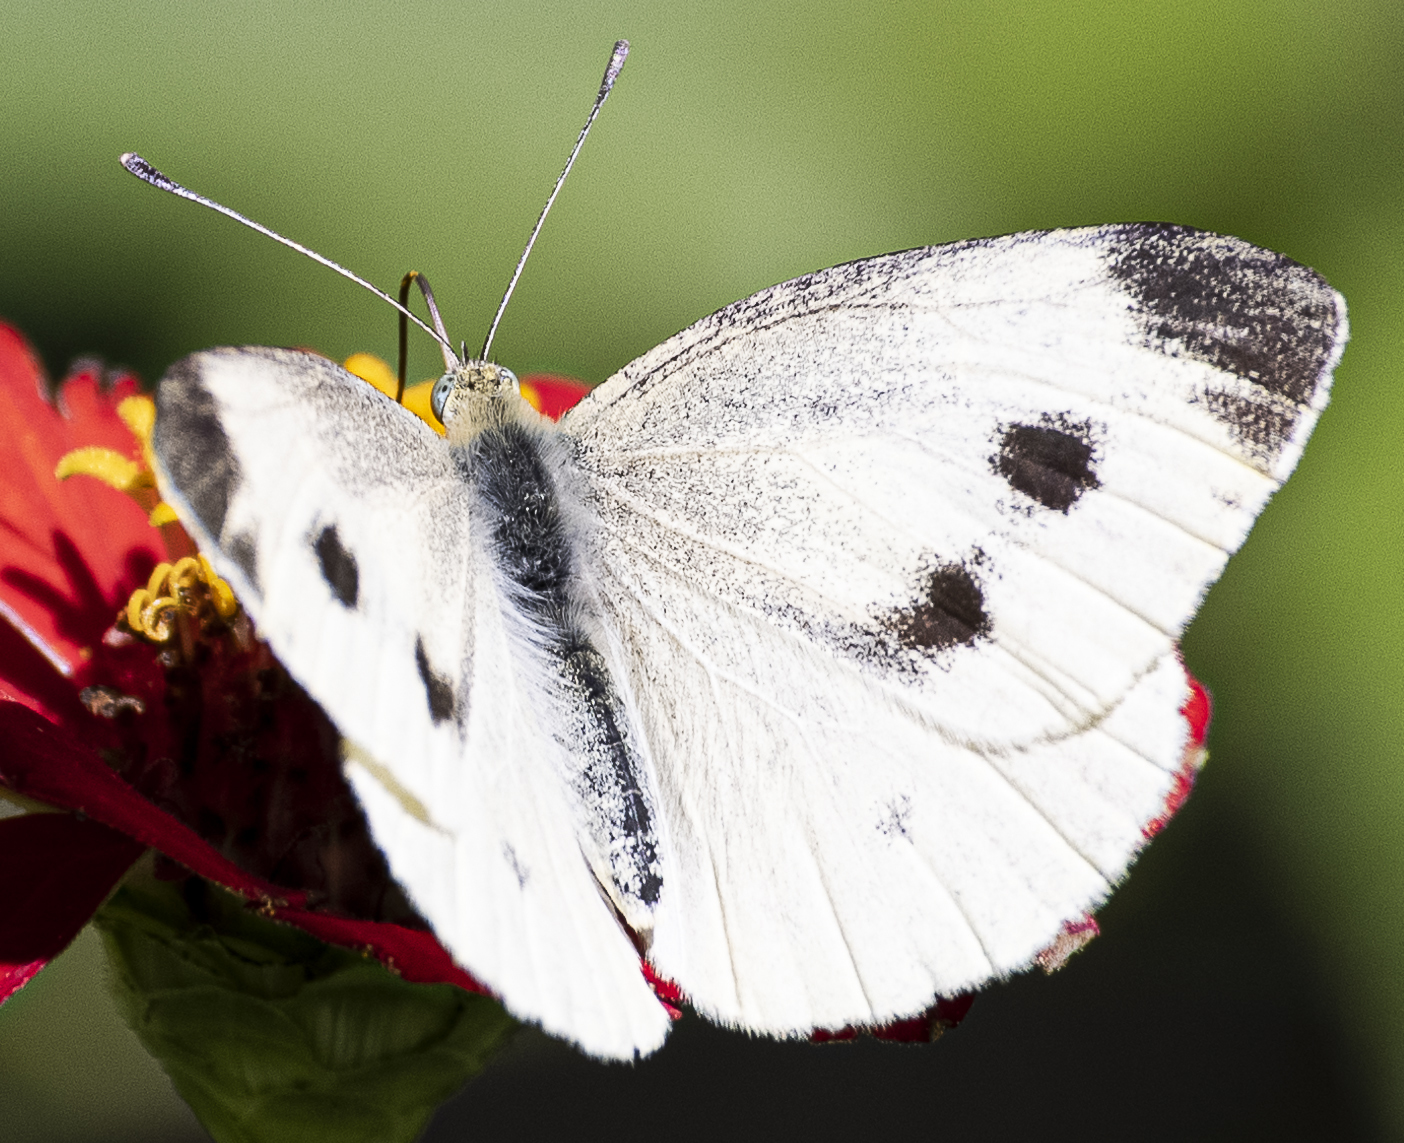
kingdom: Animalia
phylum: Arthropoda
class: Insecta
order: Lepidoptera
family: Pieridae
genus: Pieris
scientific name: Pieris rapae
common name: Small white
